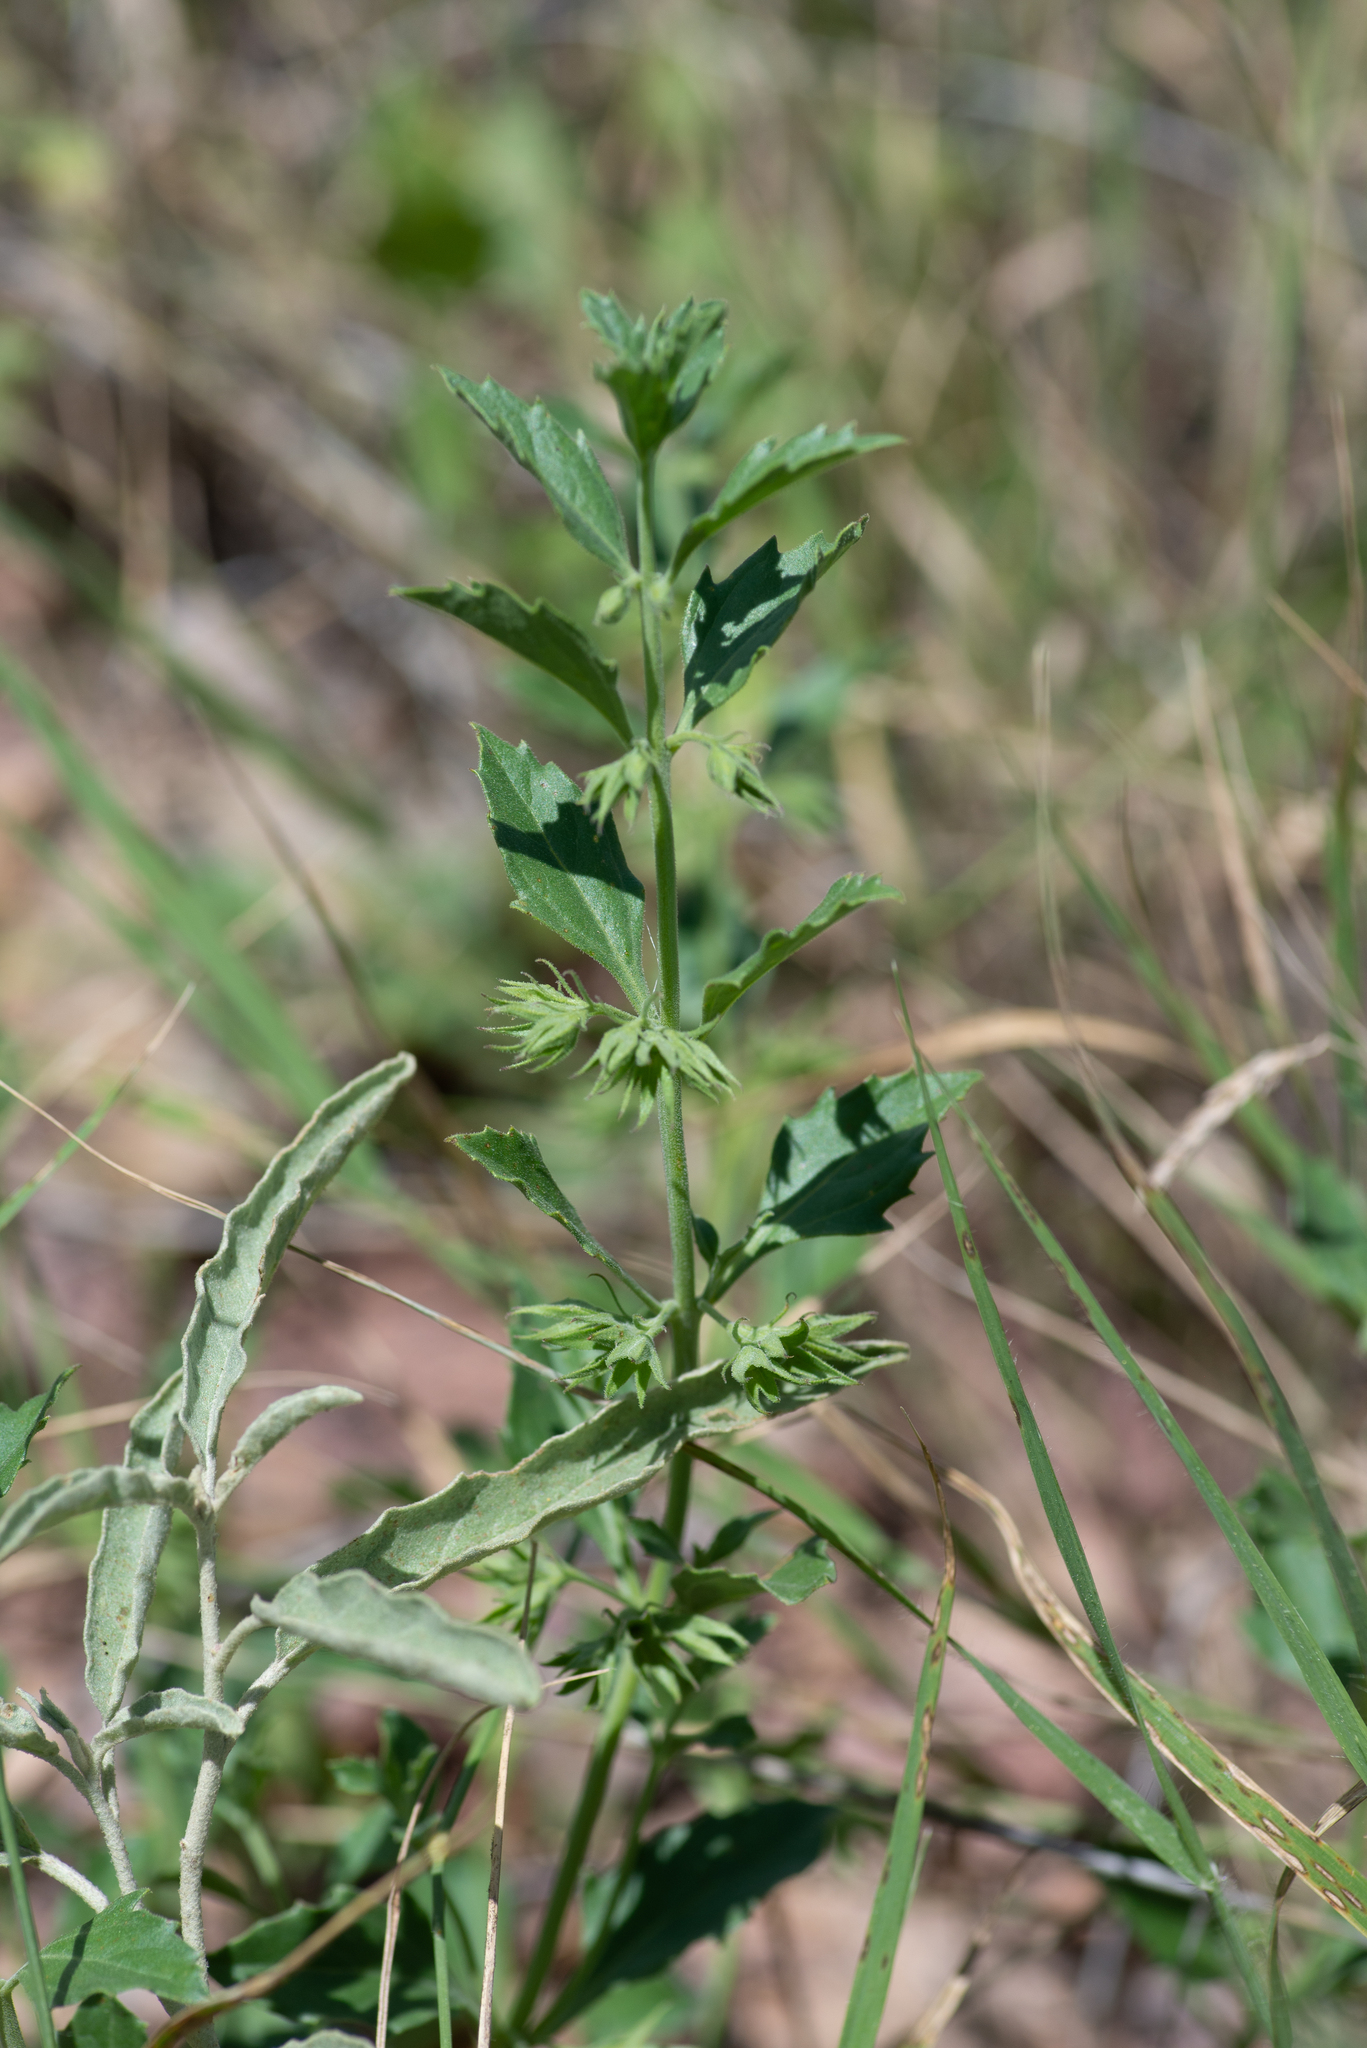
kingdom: Plantae
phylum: Tracheophyta
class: Magnoliopsida
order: Lamiales
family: Lamiaceae
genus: Tetraclea
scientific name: Tetraclea coulteri
